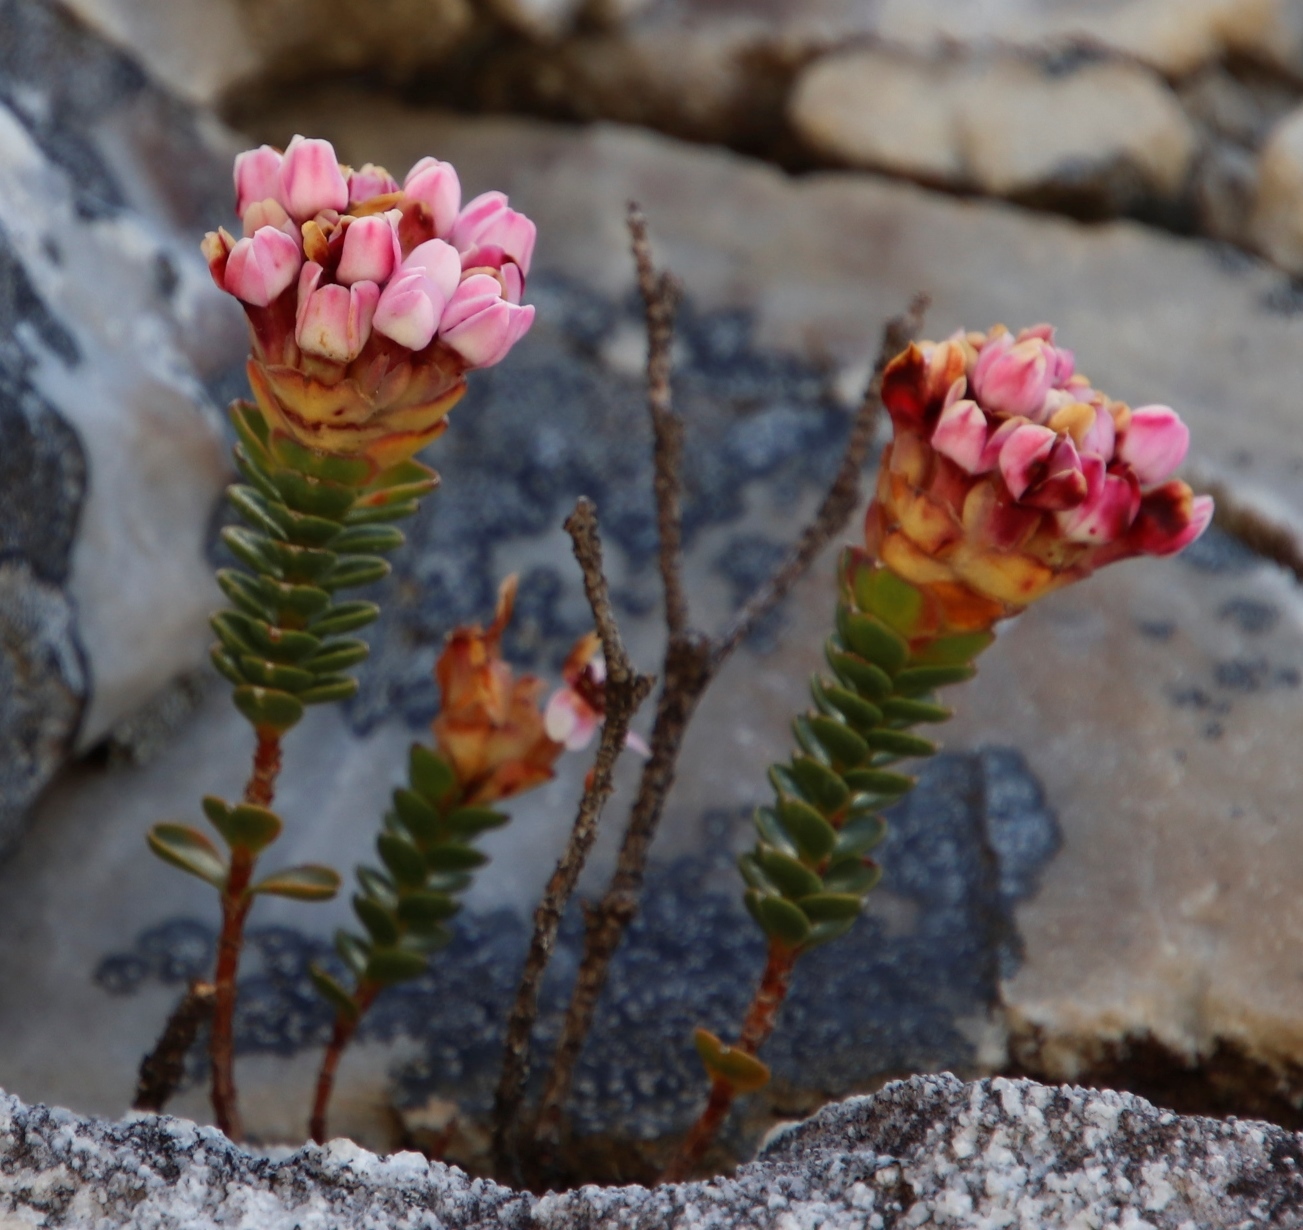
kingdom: Plantae
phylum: Tracheophyta
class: Magnoliopsida
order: Myrtales
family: Penaeaceae
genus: Sonderothamnus
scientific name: Sonderothamnus petraeus
